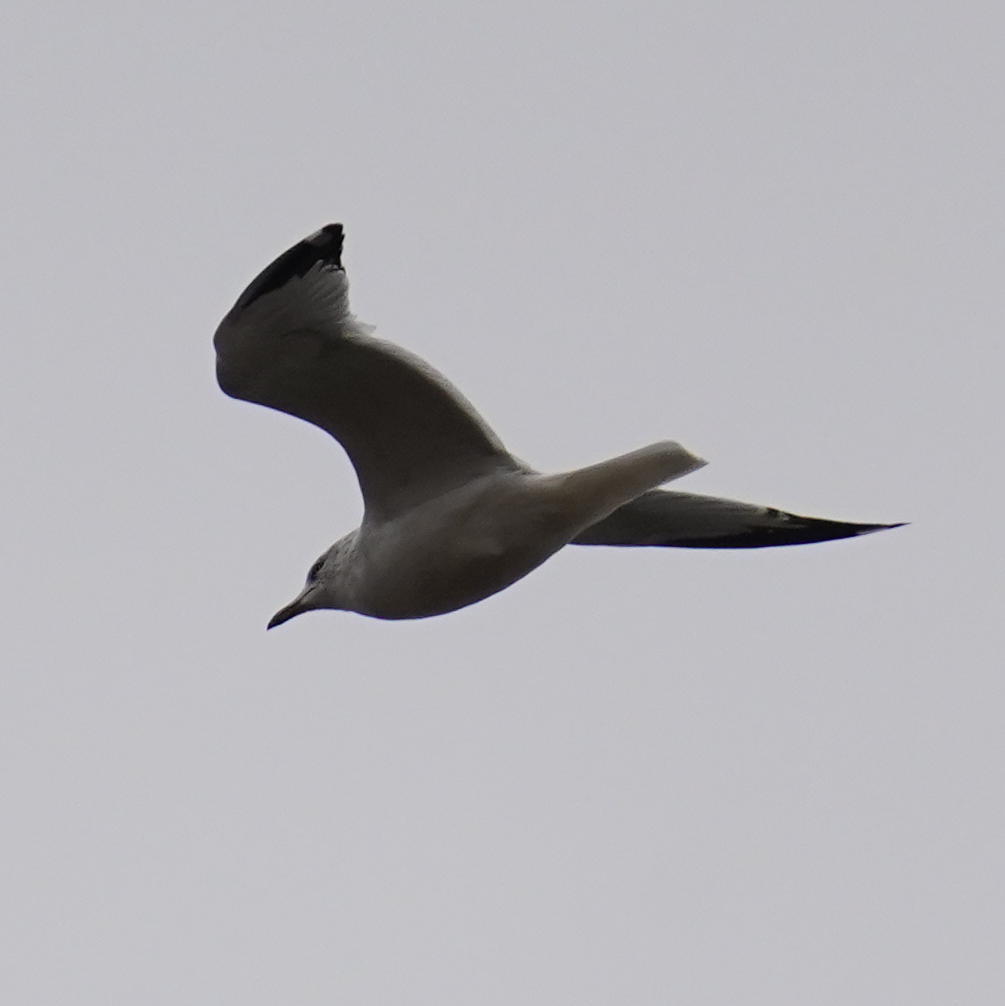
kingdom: Animalia
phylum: Chordata
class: Aves
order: Charadriiformes
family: Laridae
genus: Larus
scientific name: Larus delawarensis
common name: Ring-billed gull
